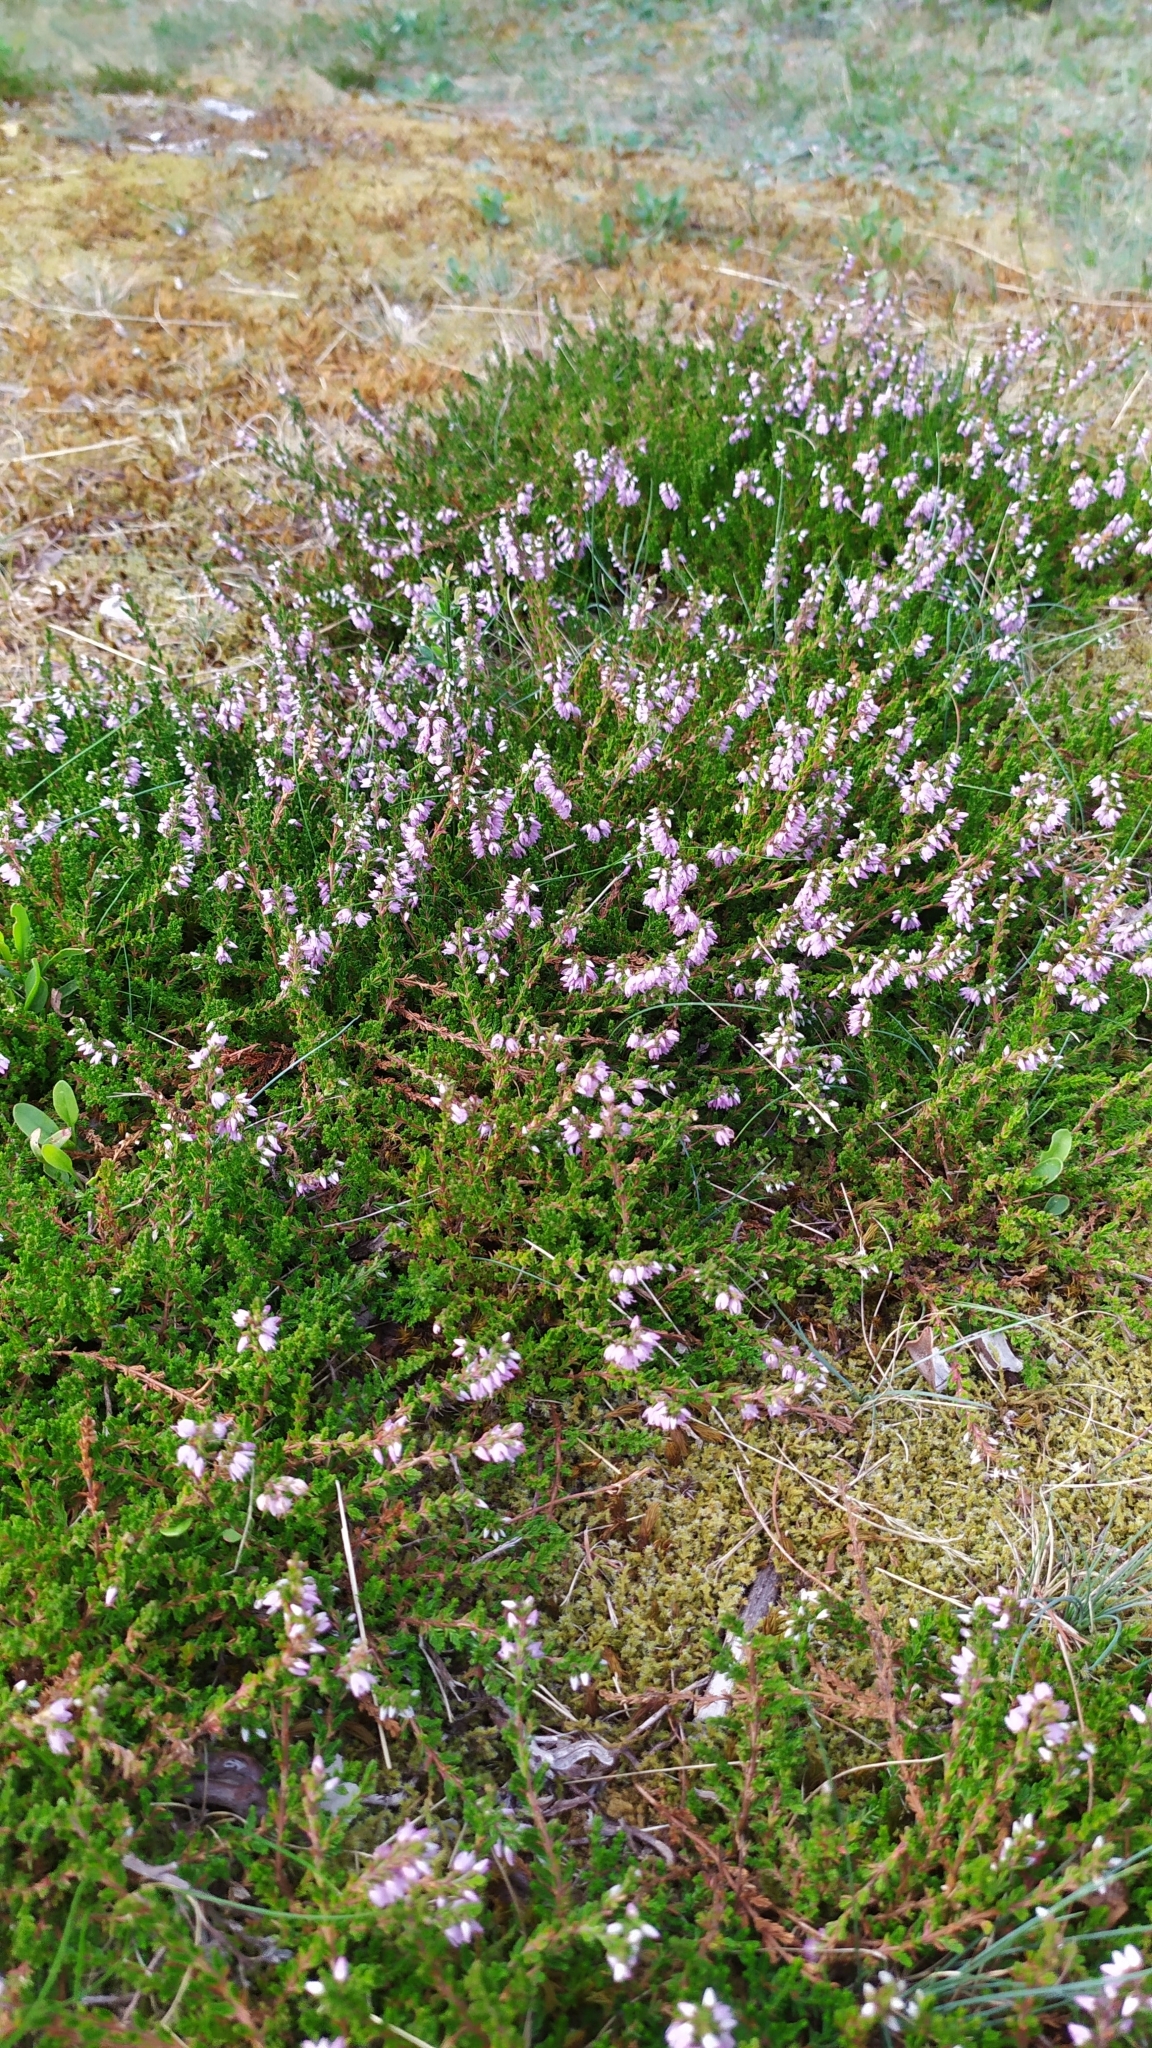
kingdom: Plantae
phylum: Tracheophyta
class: Magnoliopsida
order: Ericales
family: Ericaceae
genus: Calluna
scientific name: Calluna vulgaris
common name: Heather
